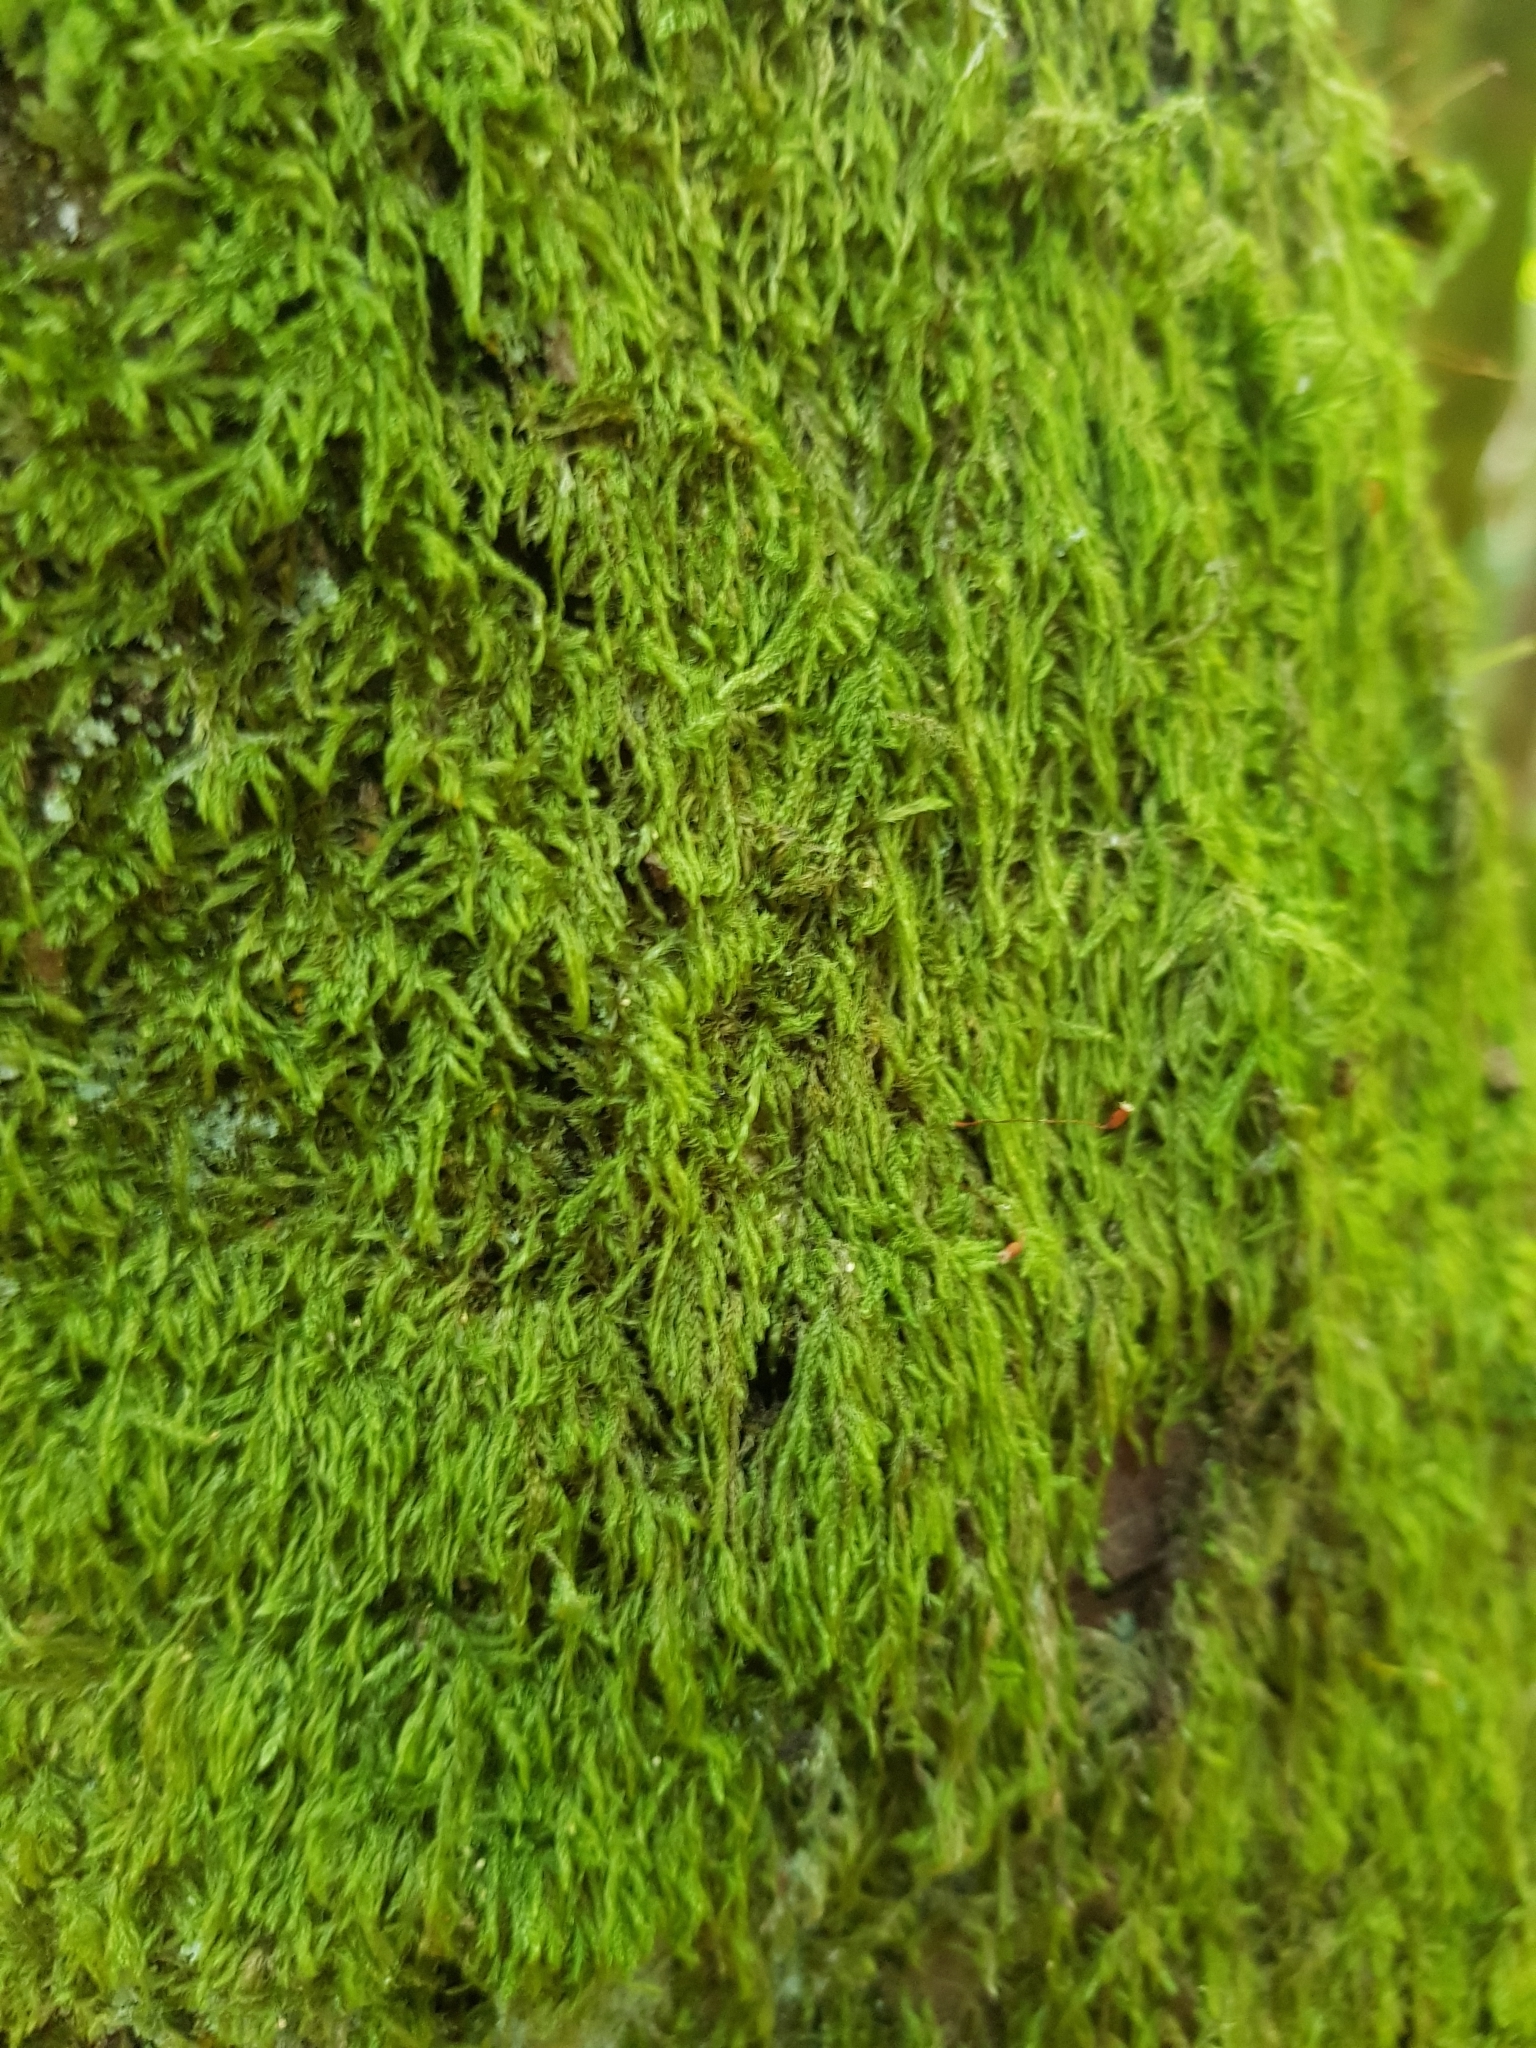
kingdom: Plantae
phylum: Bryophyta
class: Bryopsida
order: Hypnales
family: Lembophyllaceae
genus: Isothecium
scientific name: Isothecium alopecuroides
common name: Larger mouse-tail moss
